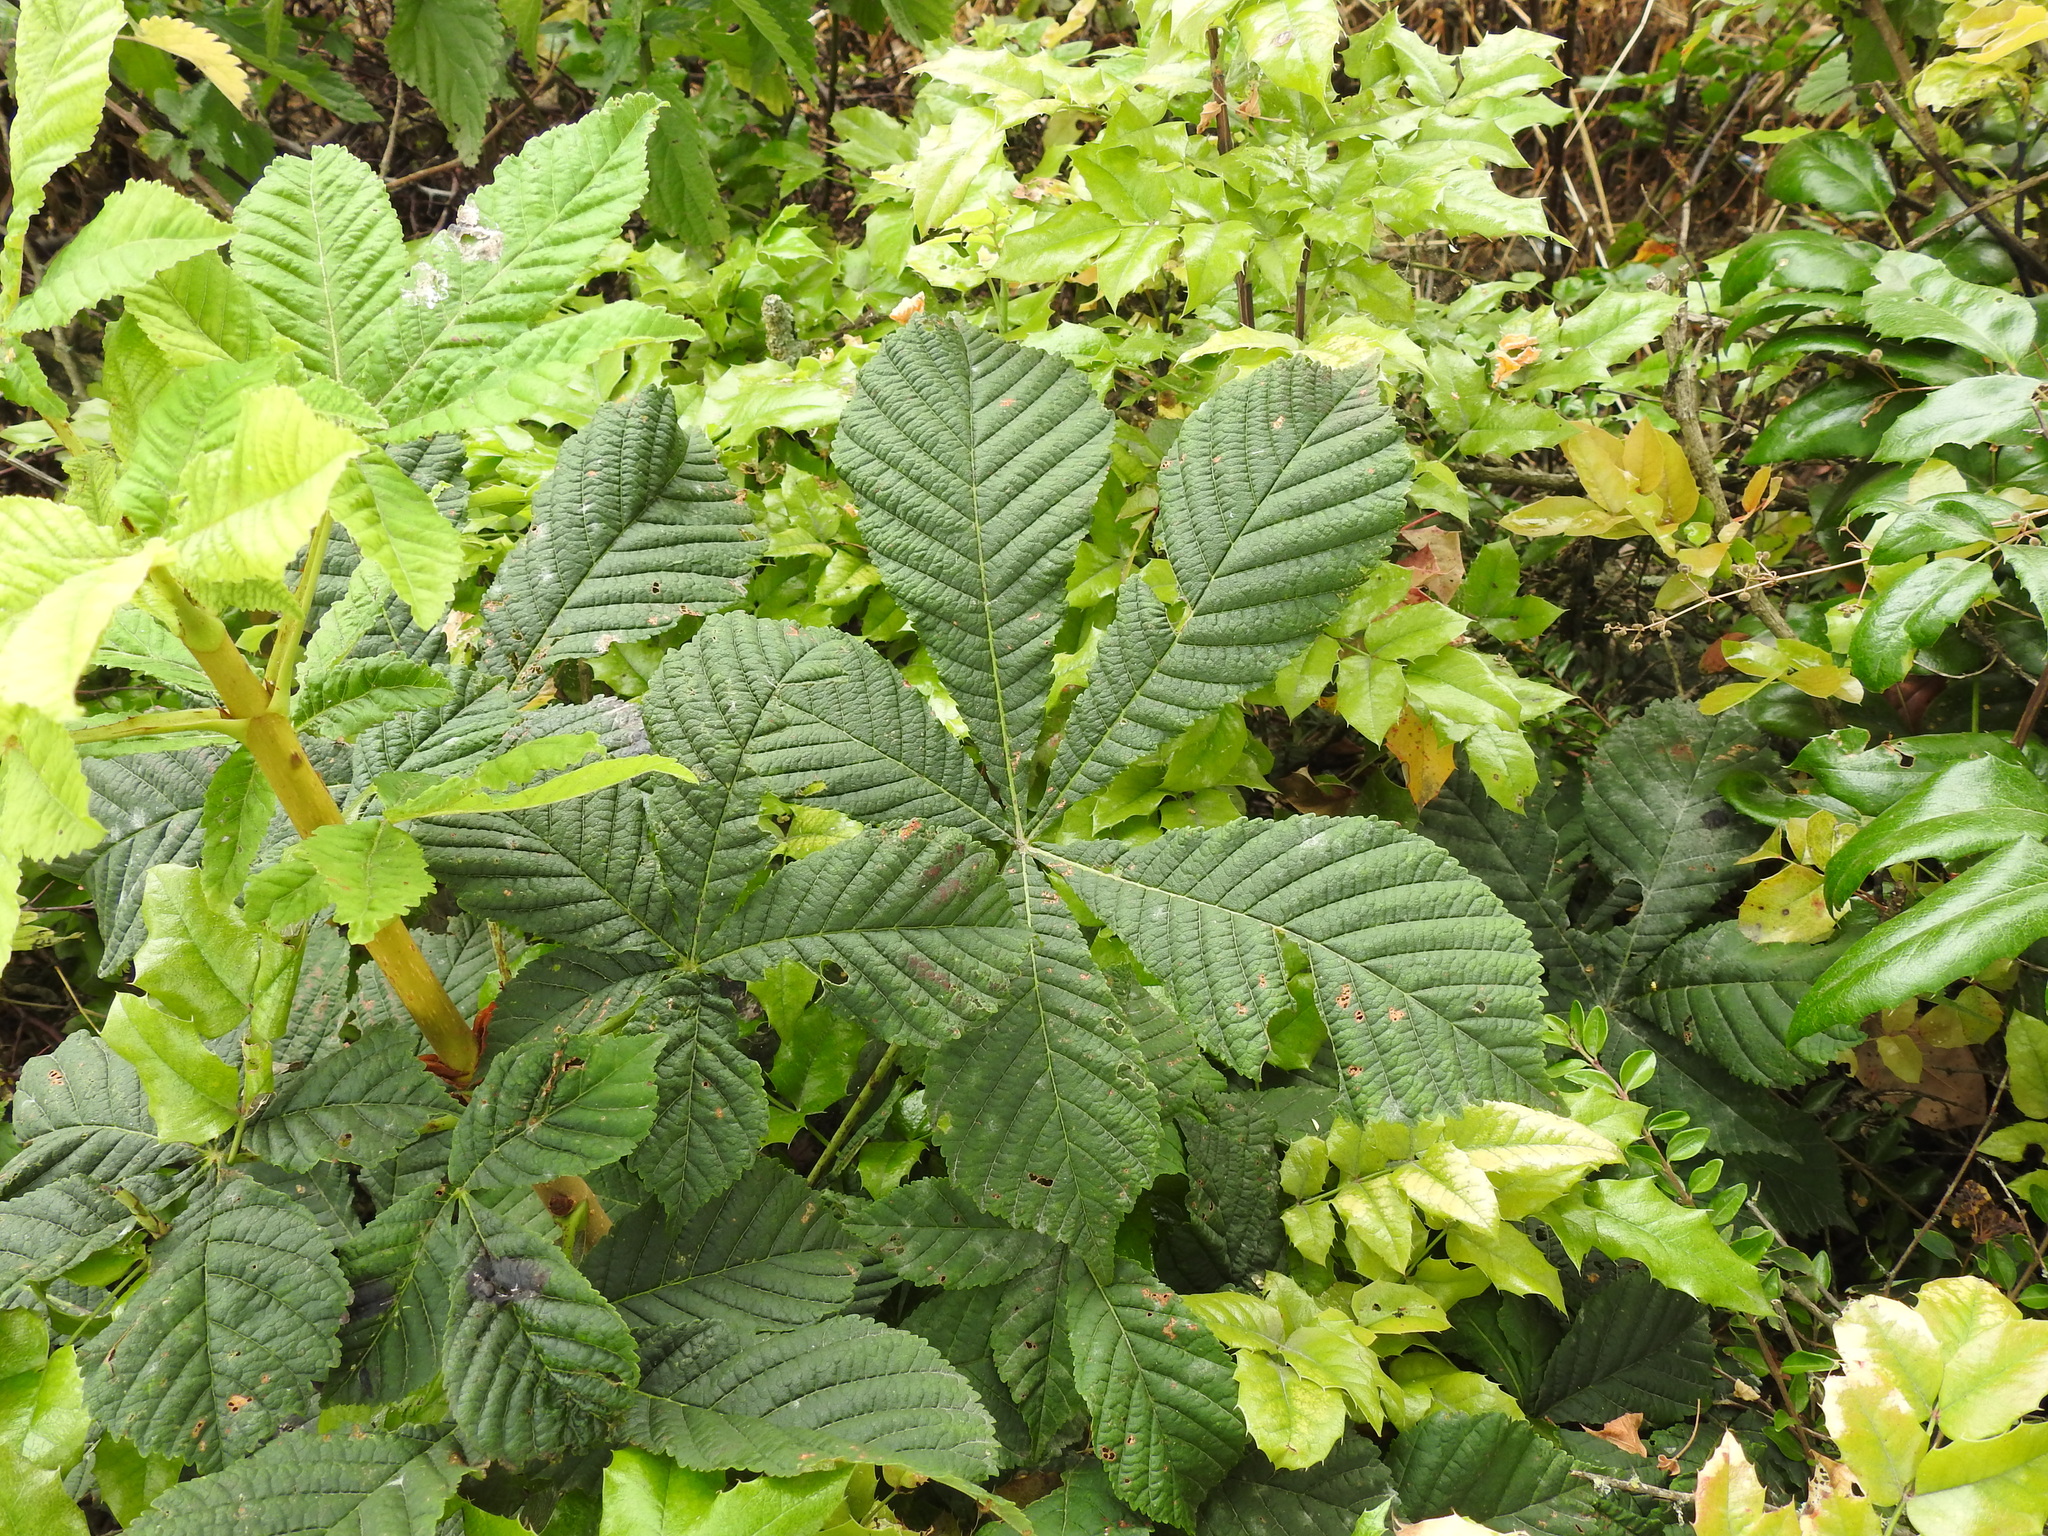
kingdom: Plantae
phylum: Tracheophyta
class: Magnoliopsida
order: Sapindales
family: Sapindaceae
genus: Aesculus
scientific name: Aesculus hippocastanum
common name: Horse-chestnut
